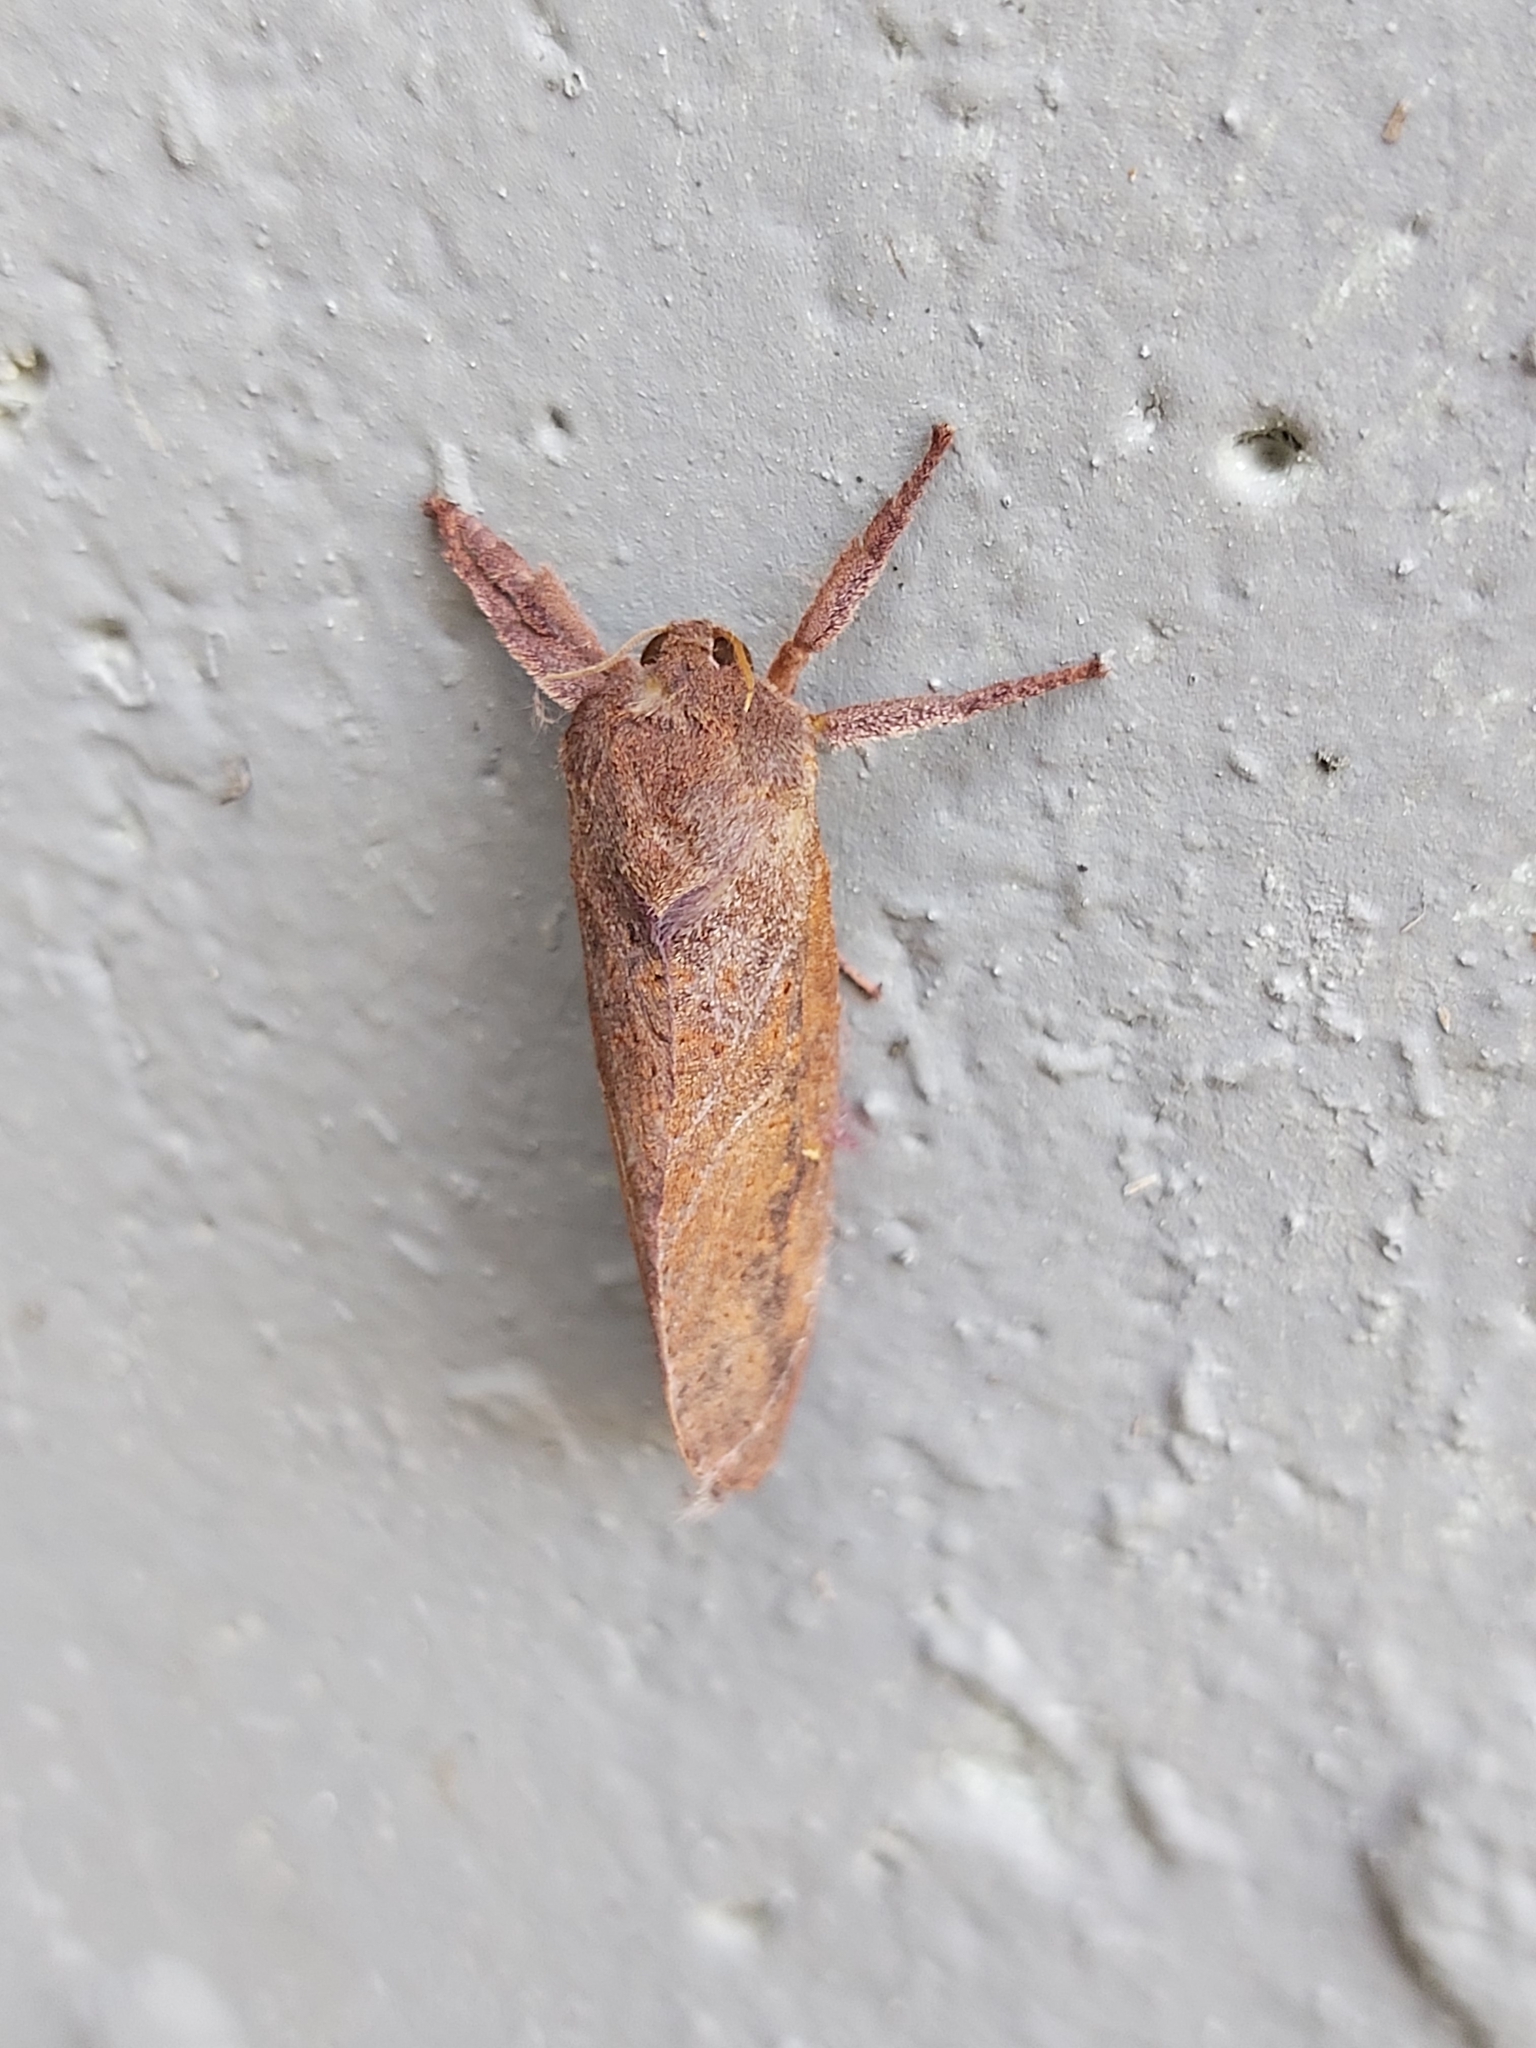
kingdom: Animalia
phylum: Arthropoda
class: Insecta
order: Lepidoptera
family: Hepialidae
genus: Elhamma
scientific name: Elhamma australasiae
